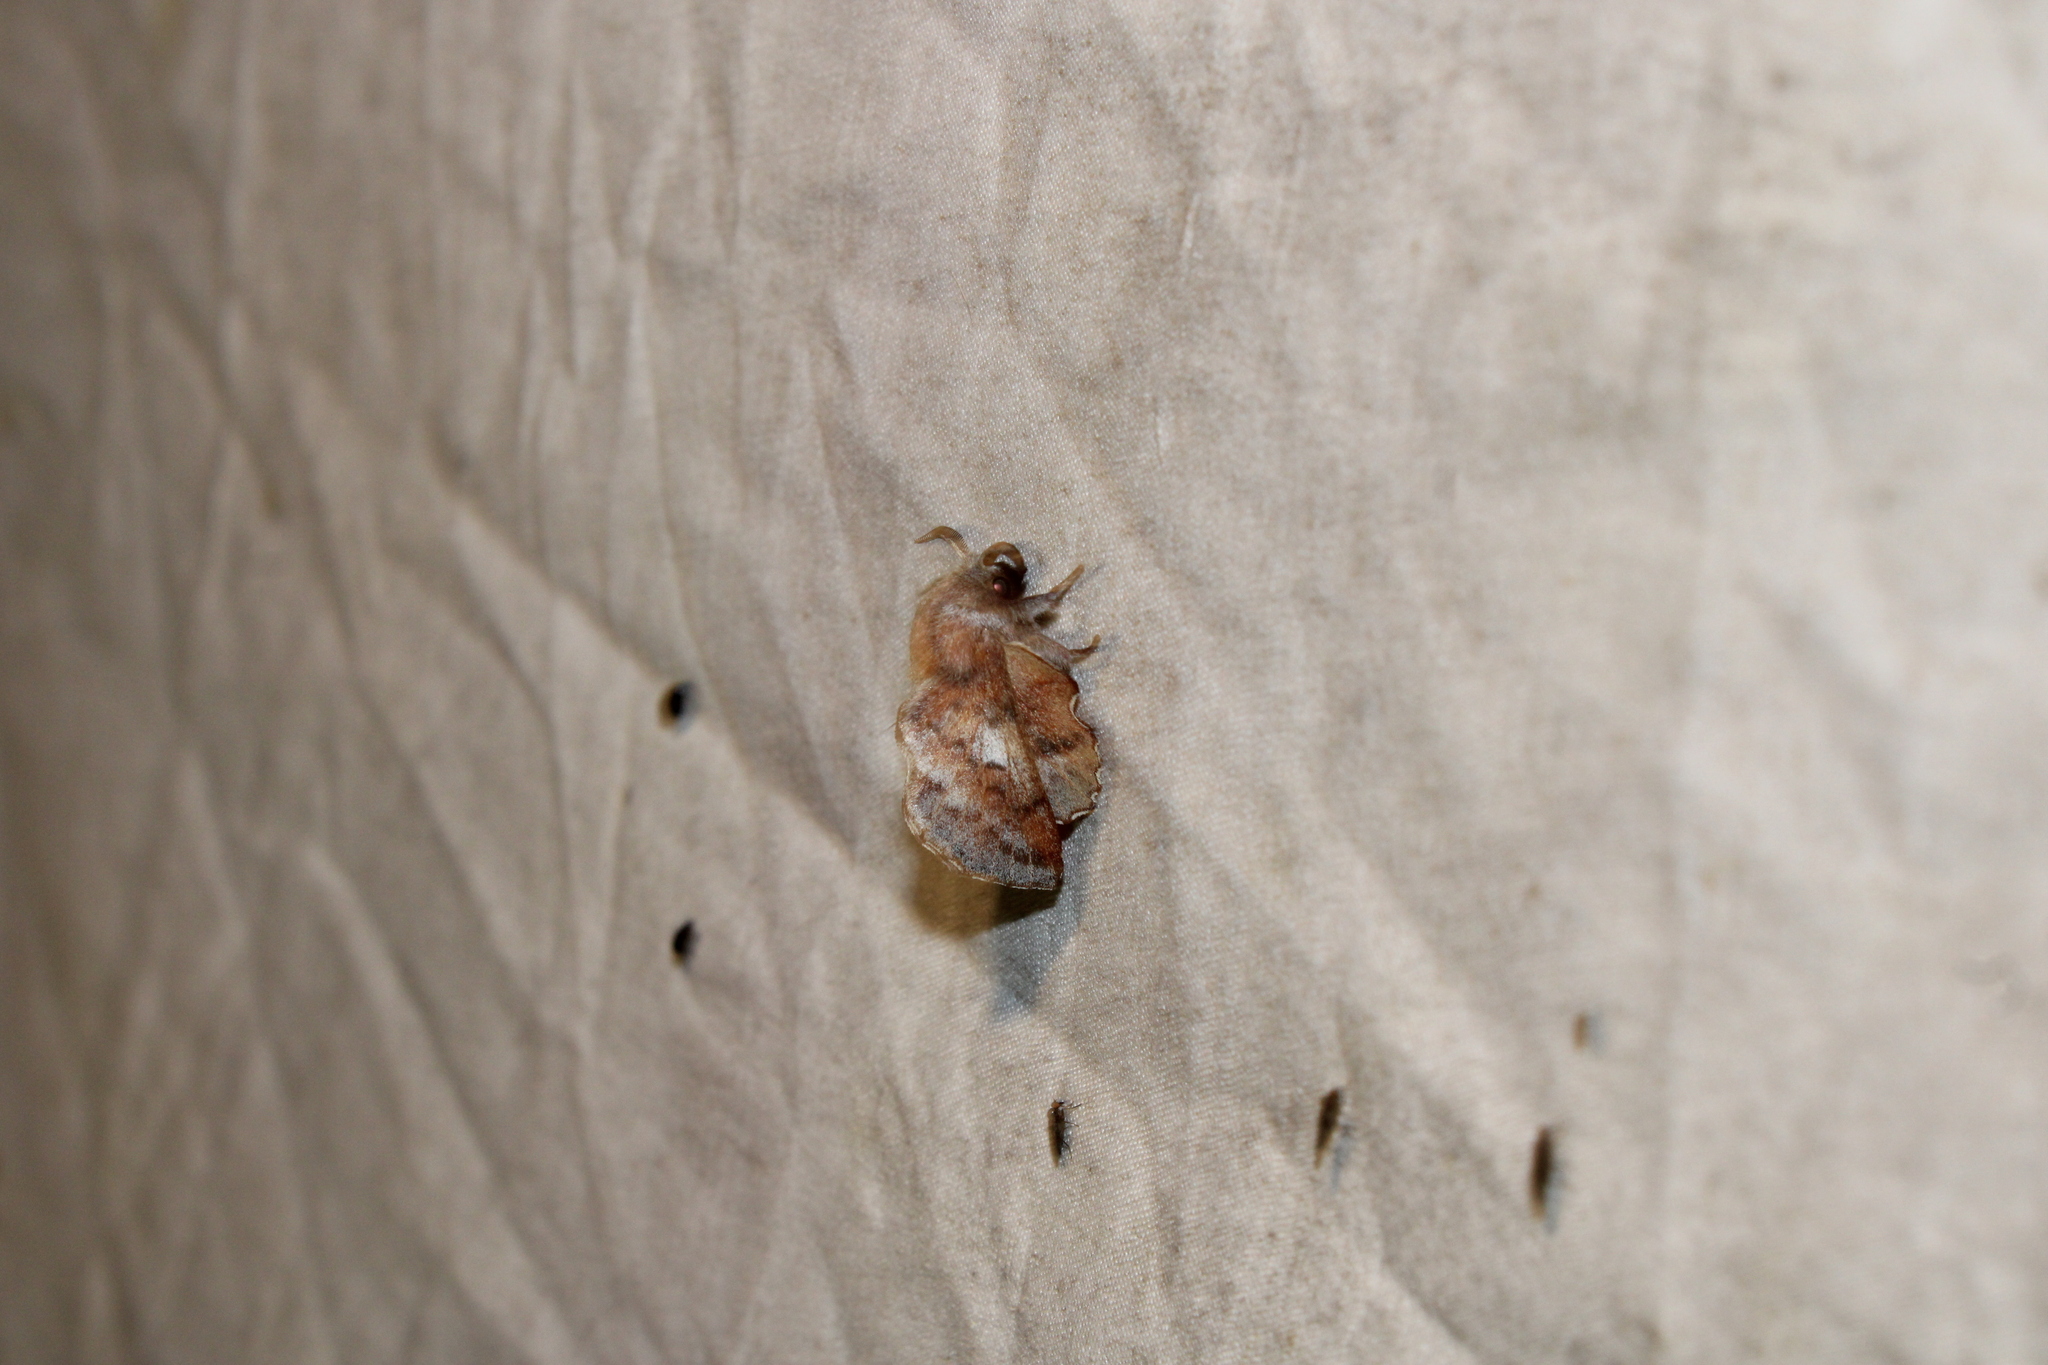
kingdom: Animalia
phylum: Arthropoda
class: Insecta
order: Lepidoptera
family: Lasiocampidae
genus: Phyllodesma
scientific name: Phyllodesma americana
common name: American lappet moth
